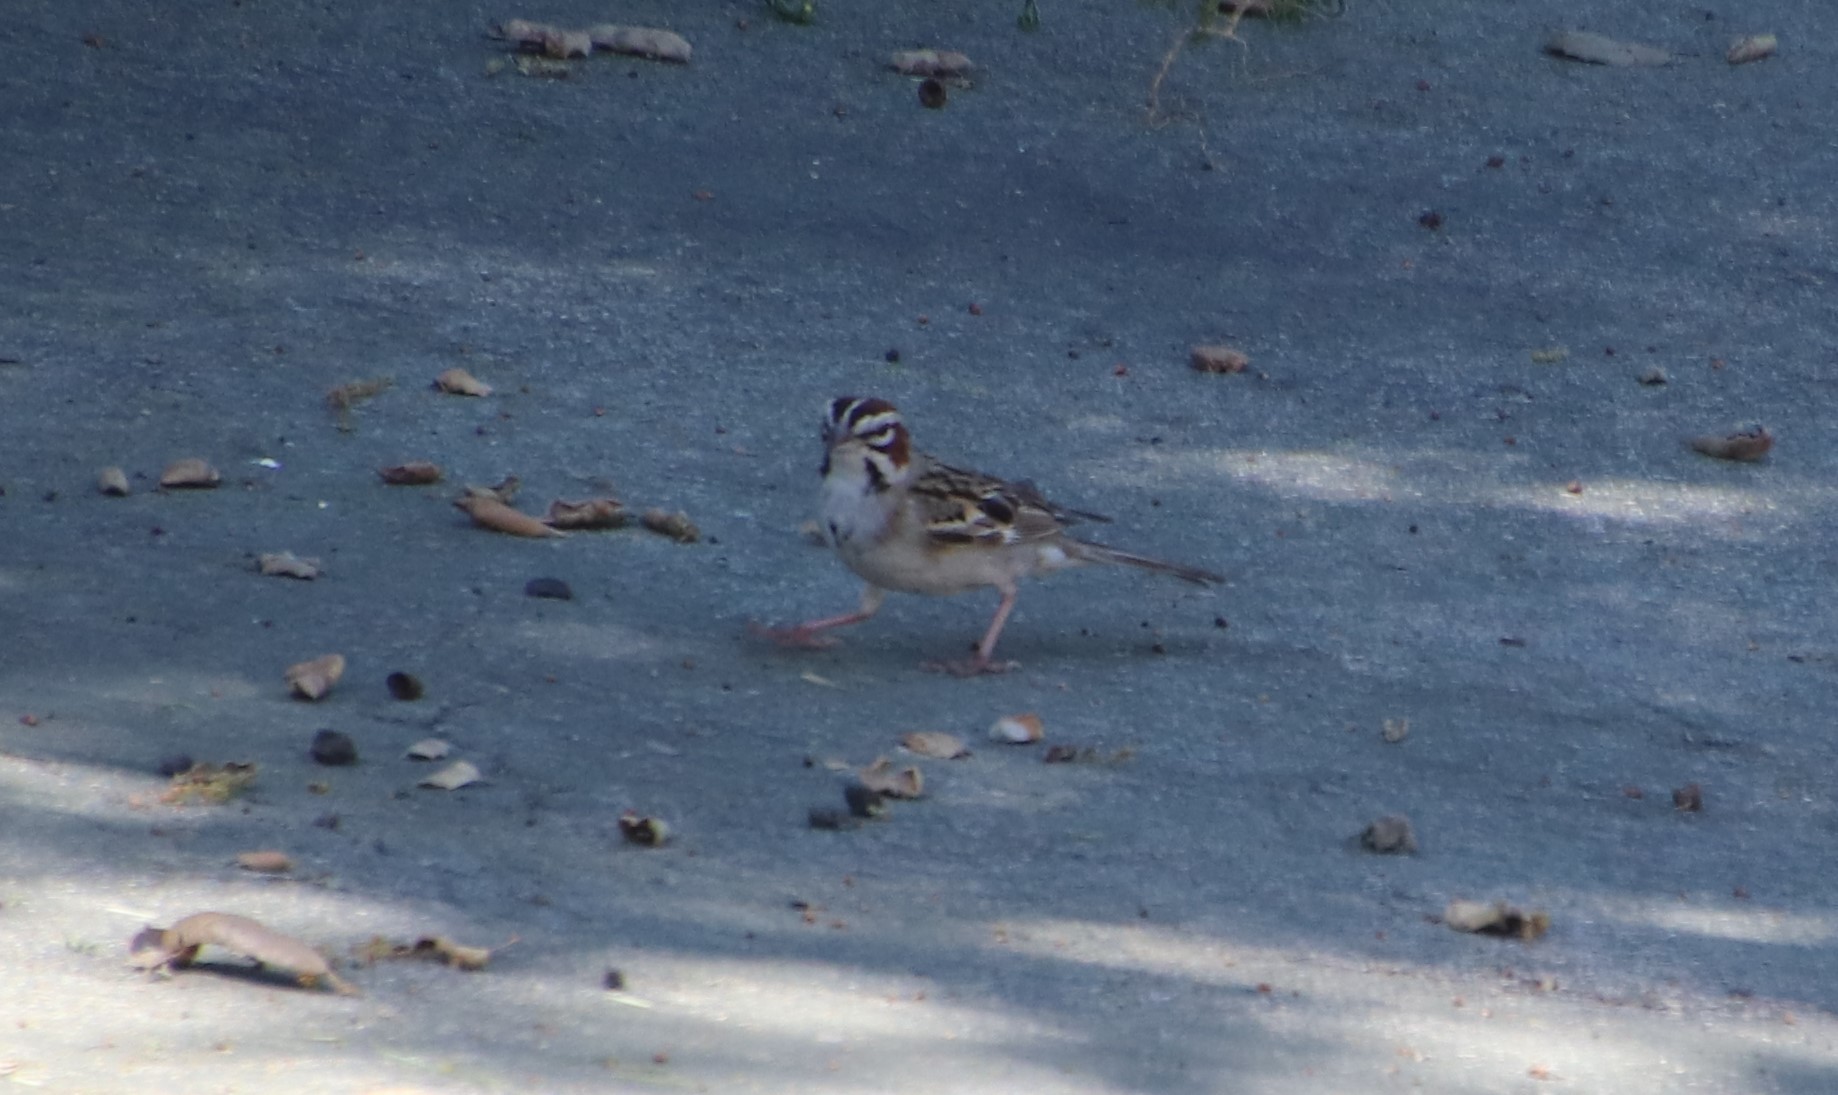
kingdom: Animalia
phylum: Chordata
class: Aves
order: Passeriformes
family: Passerellidae
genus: Chondestes
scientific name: Chondestes grammacus
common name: Lark sparrow
